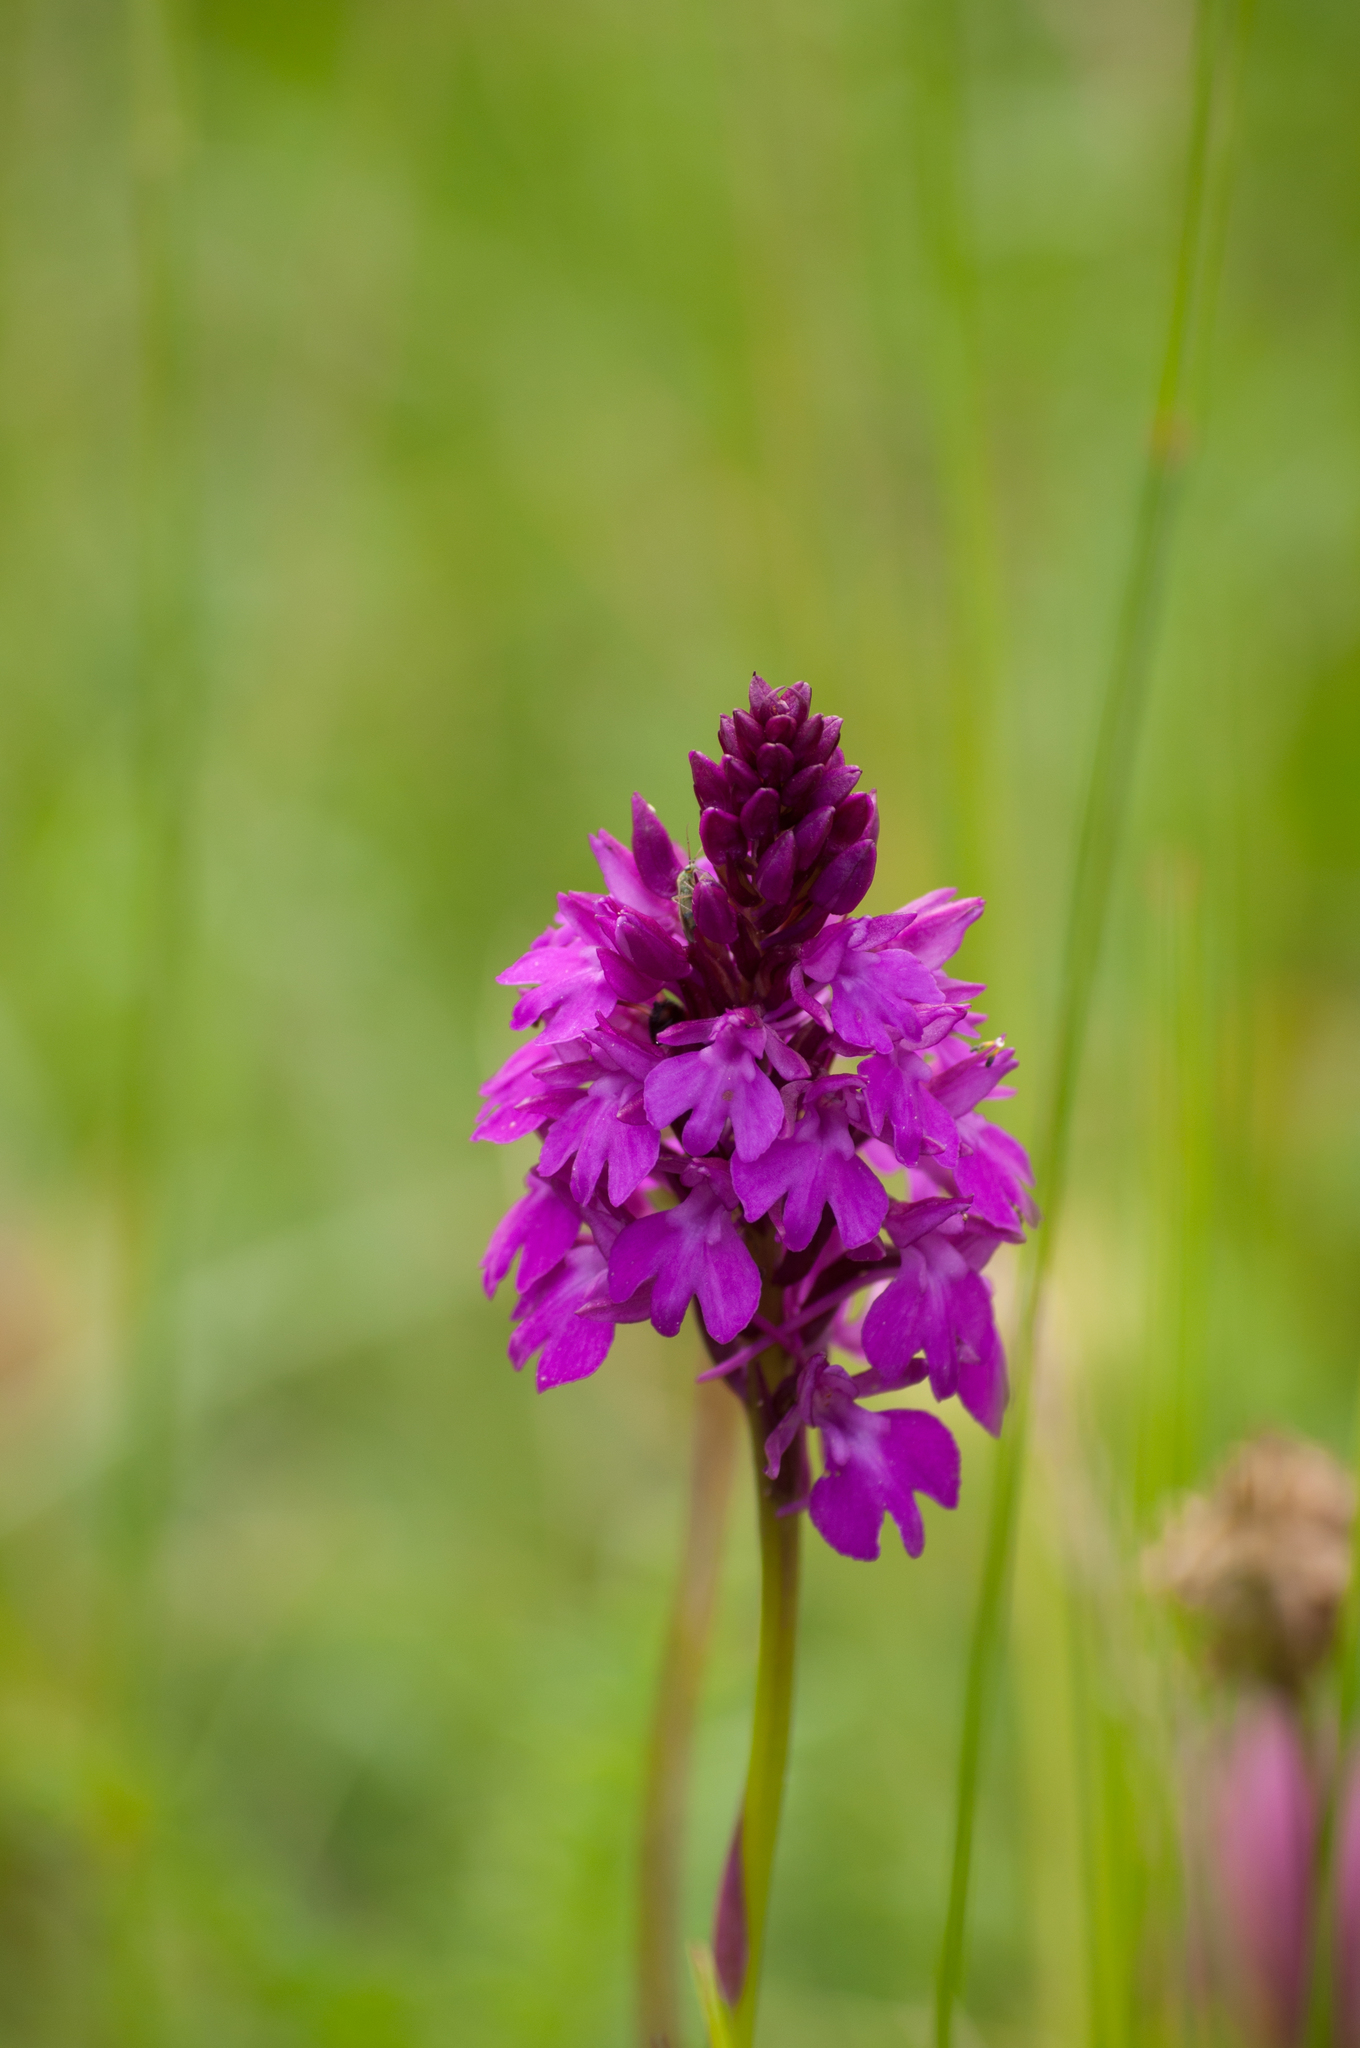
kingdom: Plantae
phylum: Tracheophyta
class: Liliopsida
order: Asparagales
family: Orchidaceae
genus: Anacamptis
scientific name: Anacamptis pyramidalis
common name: Pyramidal orchid
